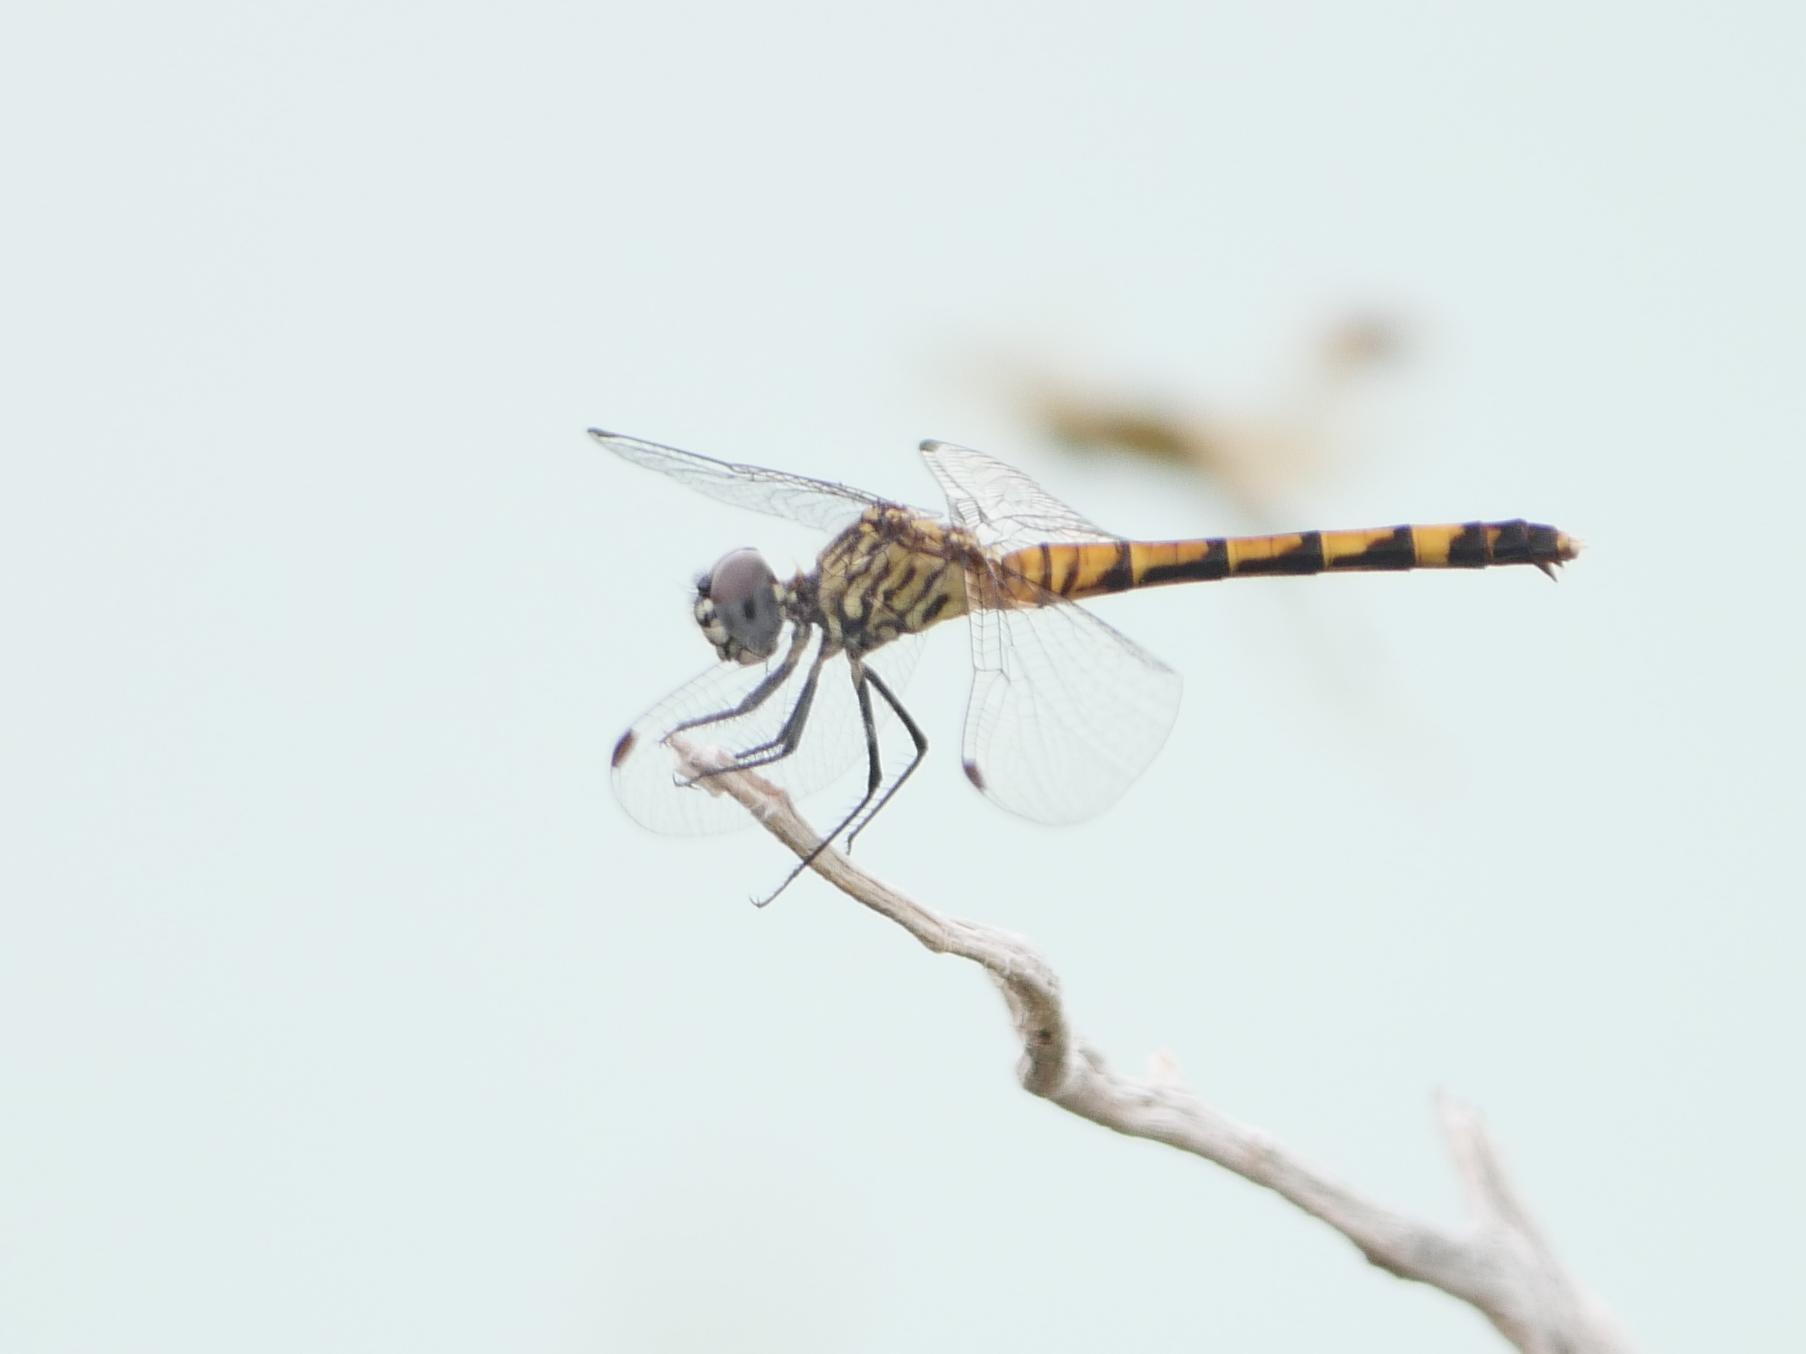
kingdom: Animalia
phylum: Arthropoda
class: Insecta
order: Odonata
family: Libellulidae
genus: Erythrodiplax
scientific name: Erythrodiplax berenice
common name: Seaside dragonlet
